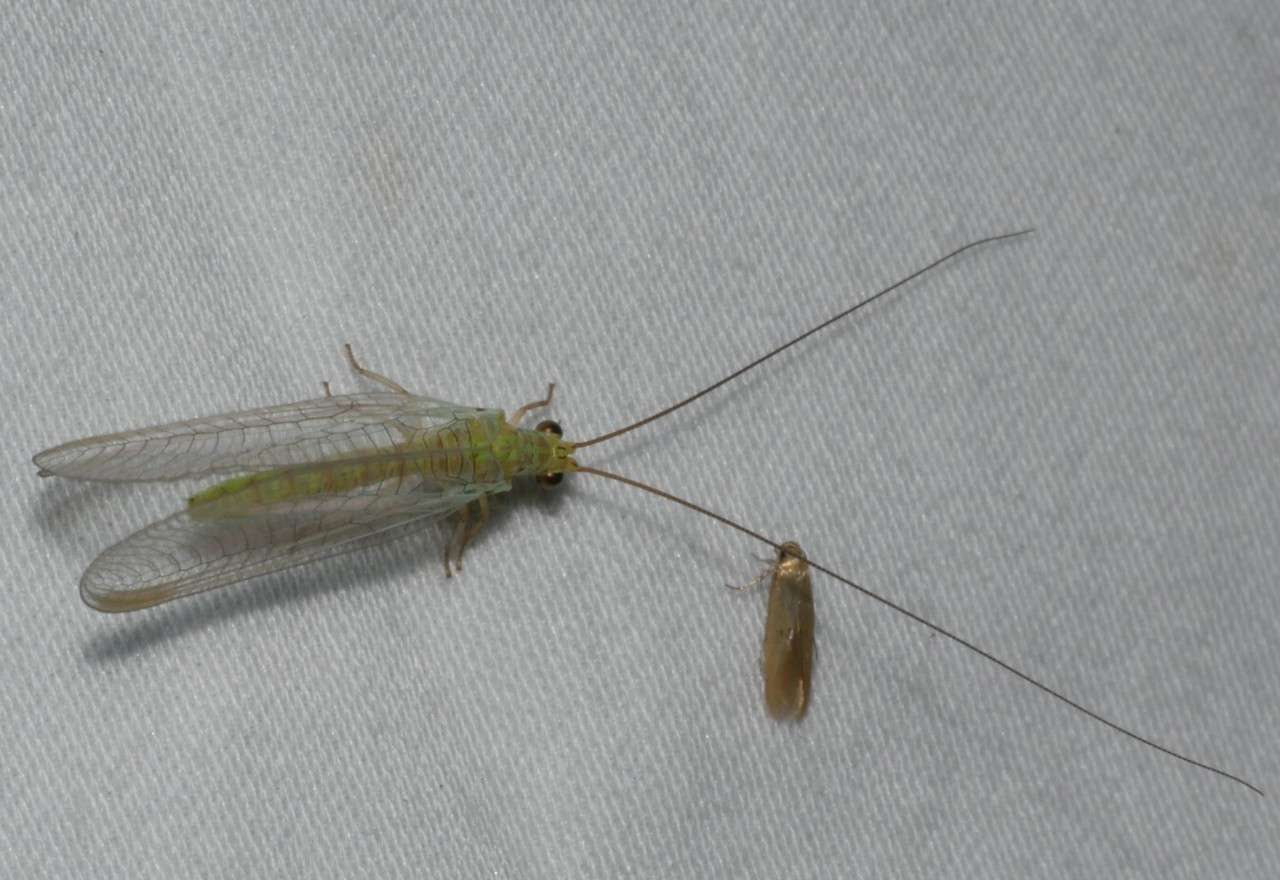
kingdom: Animalia
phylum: Arthropoda
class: Insecta
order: Neuroptera
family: Chrysopidae
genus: Plesiochrysa
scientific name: Plesiochrysa ramburi
